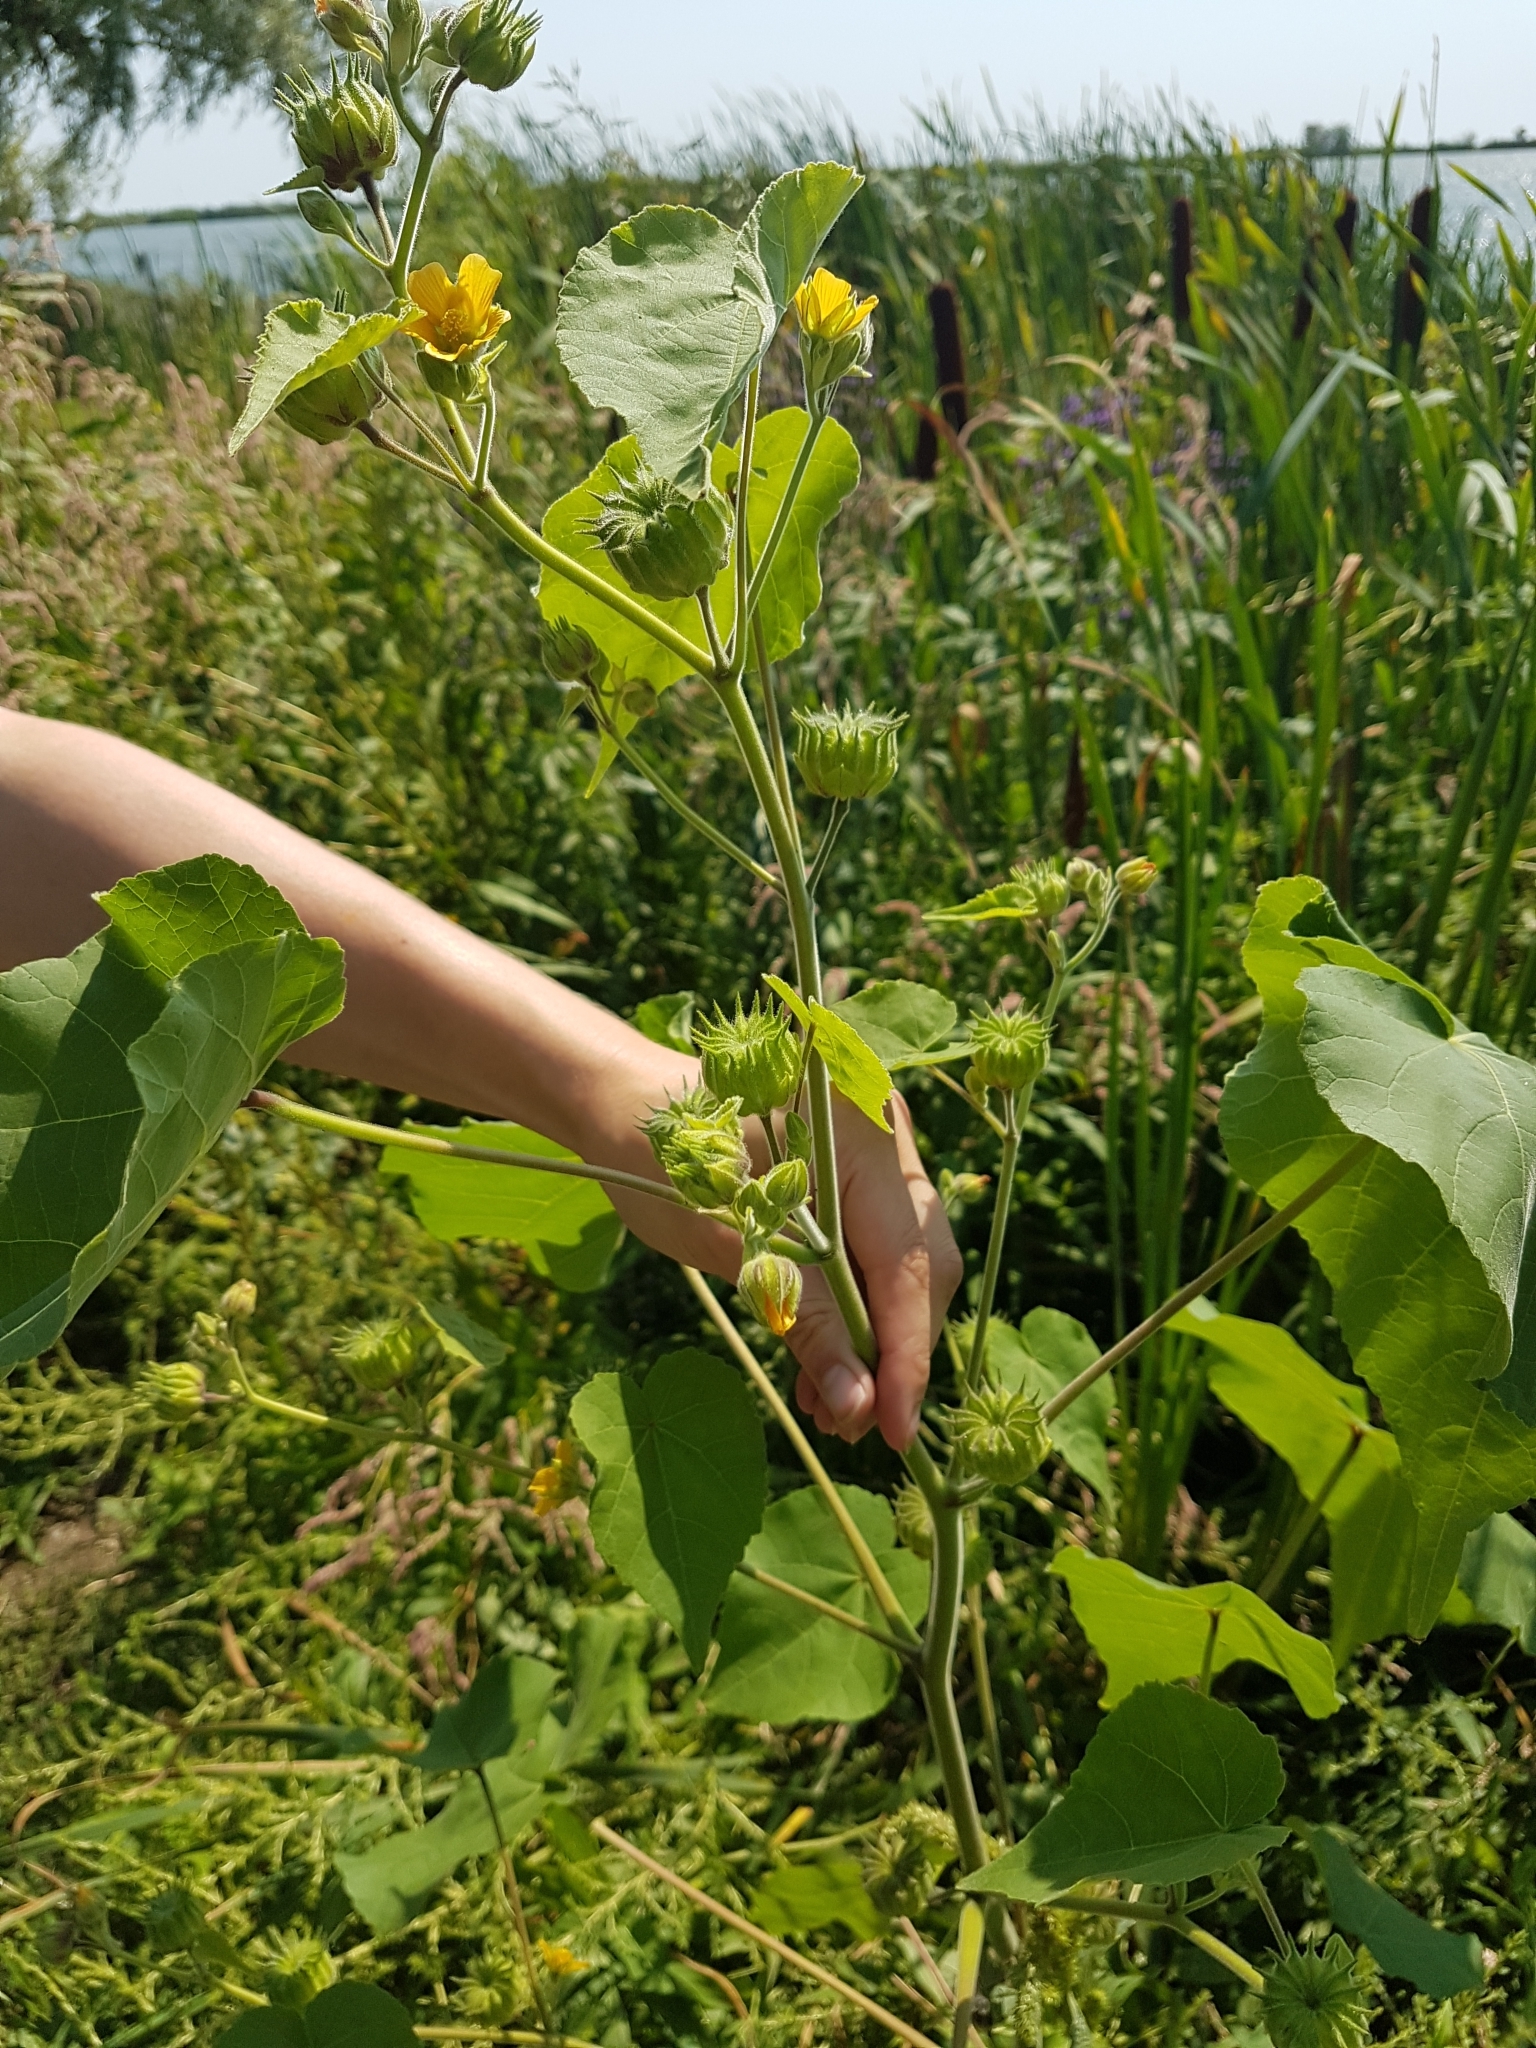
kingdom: Plantae
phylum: Tracheophyta
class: Magnoliopsida
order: Malvales
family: Malvaceae
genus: Abutilon
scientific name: Abutilon theophrasti
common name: Velvetleaf
